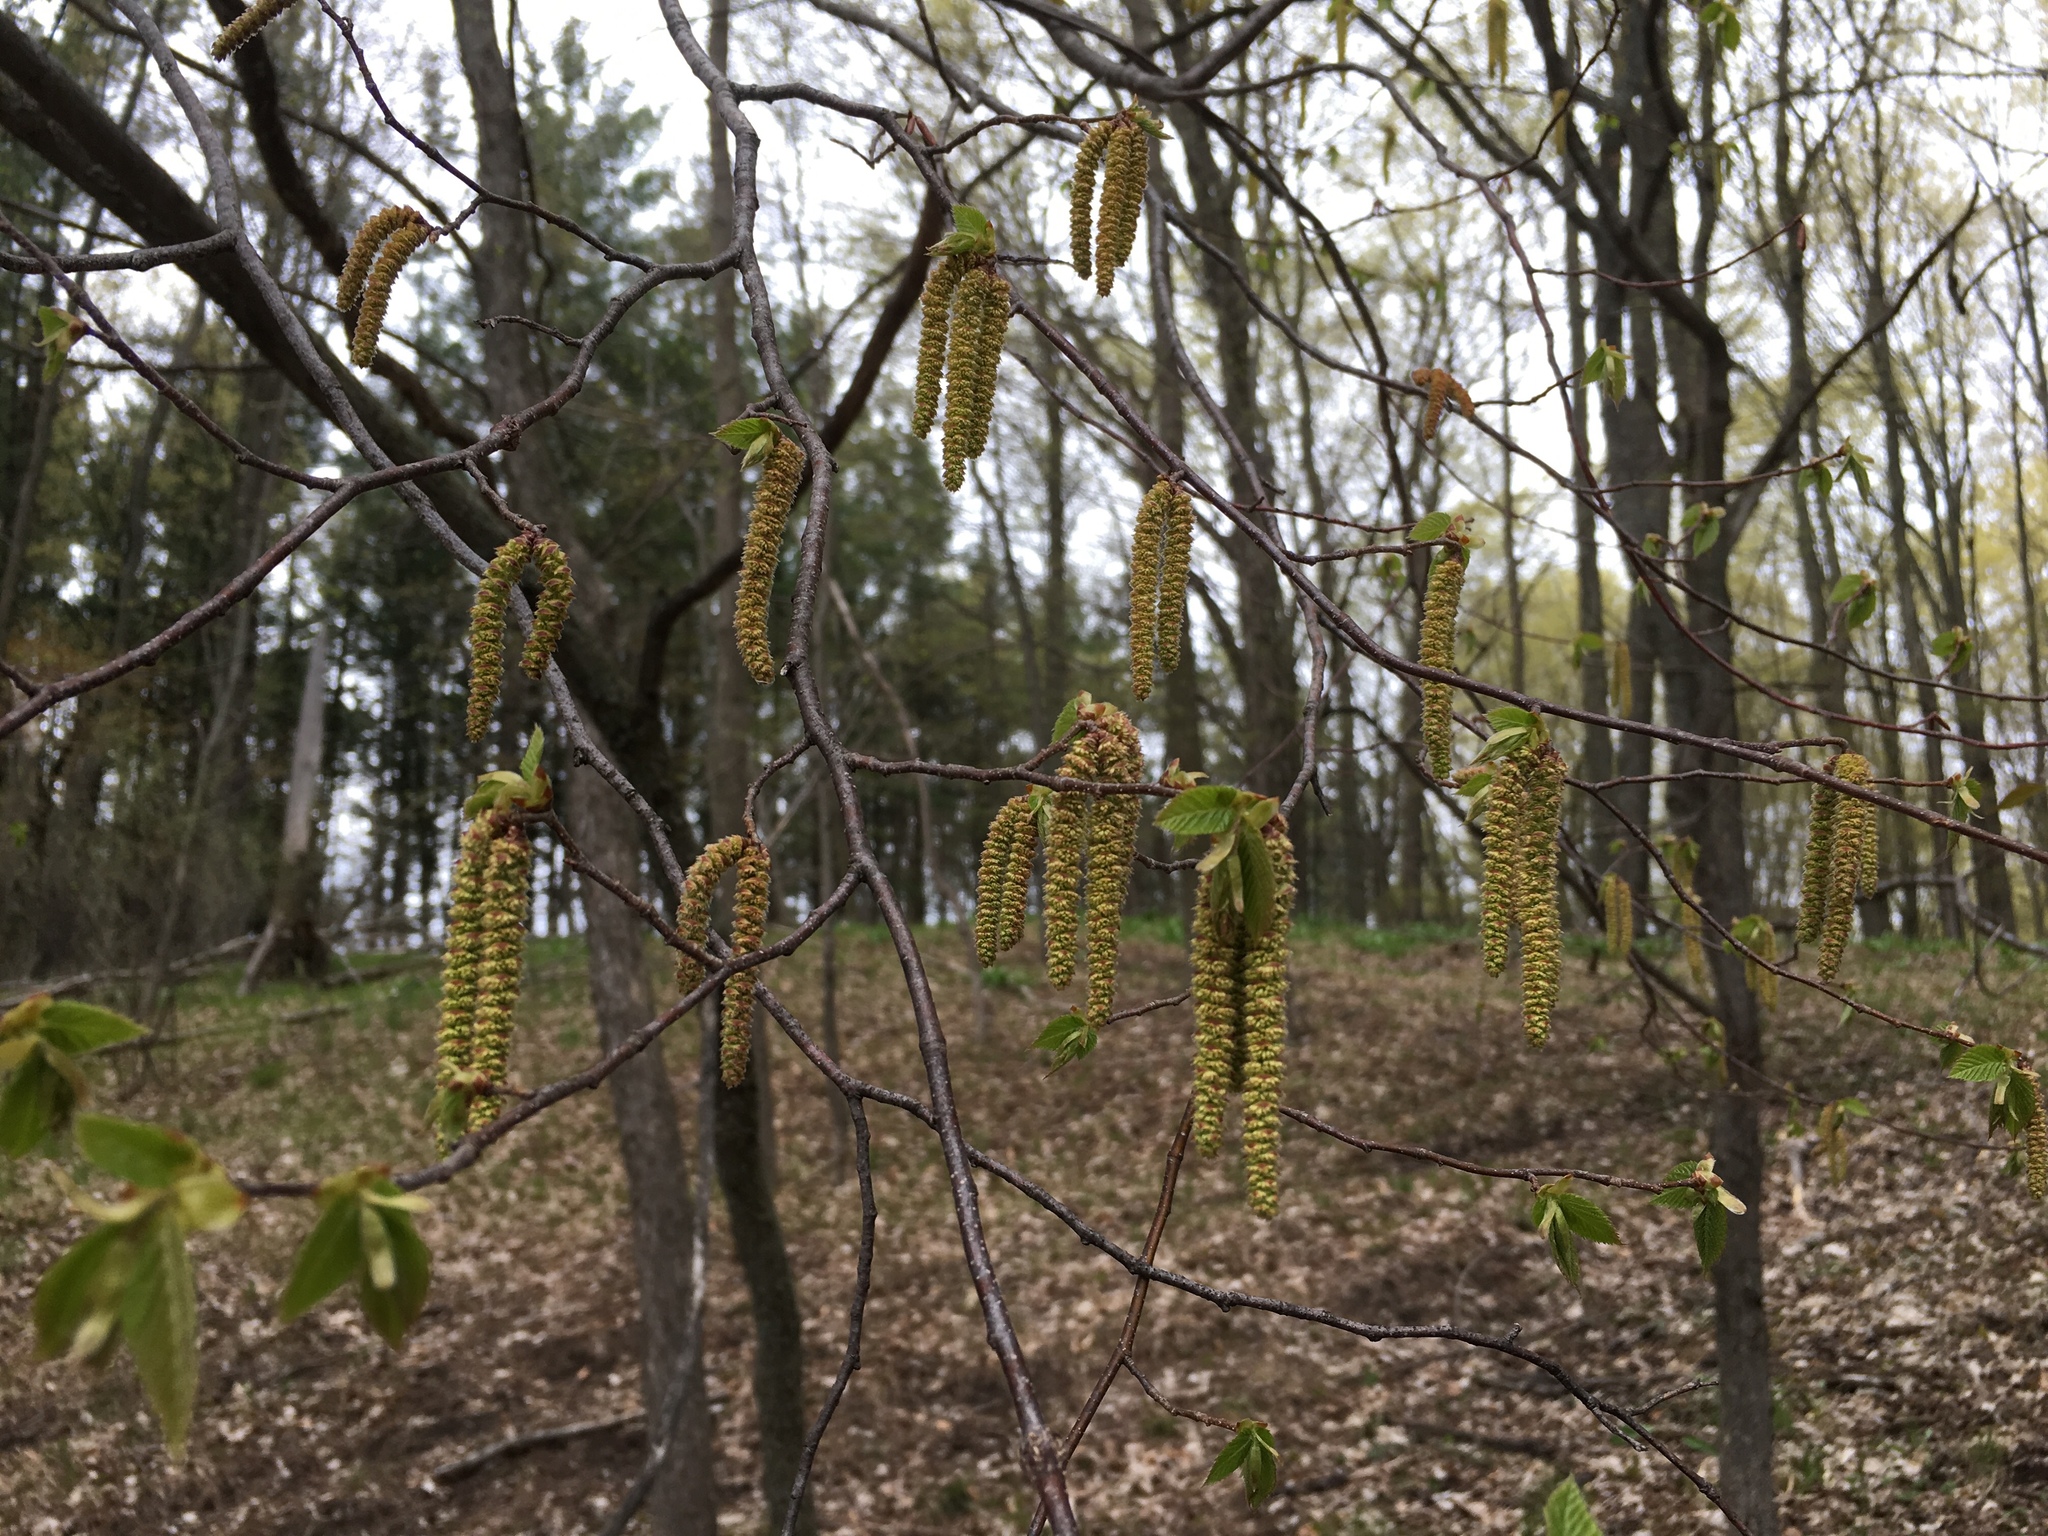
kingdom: Plantae
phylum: Tracheophyta
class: Magnoliopsida
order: Fagales
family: Betulaceae
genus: Ostrya
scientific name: Ostrya virginiana
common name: Ironwood
